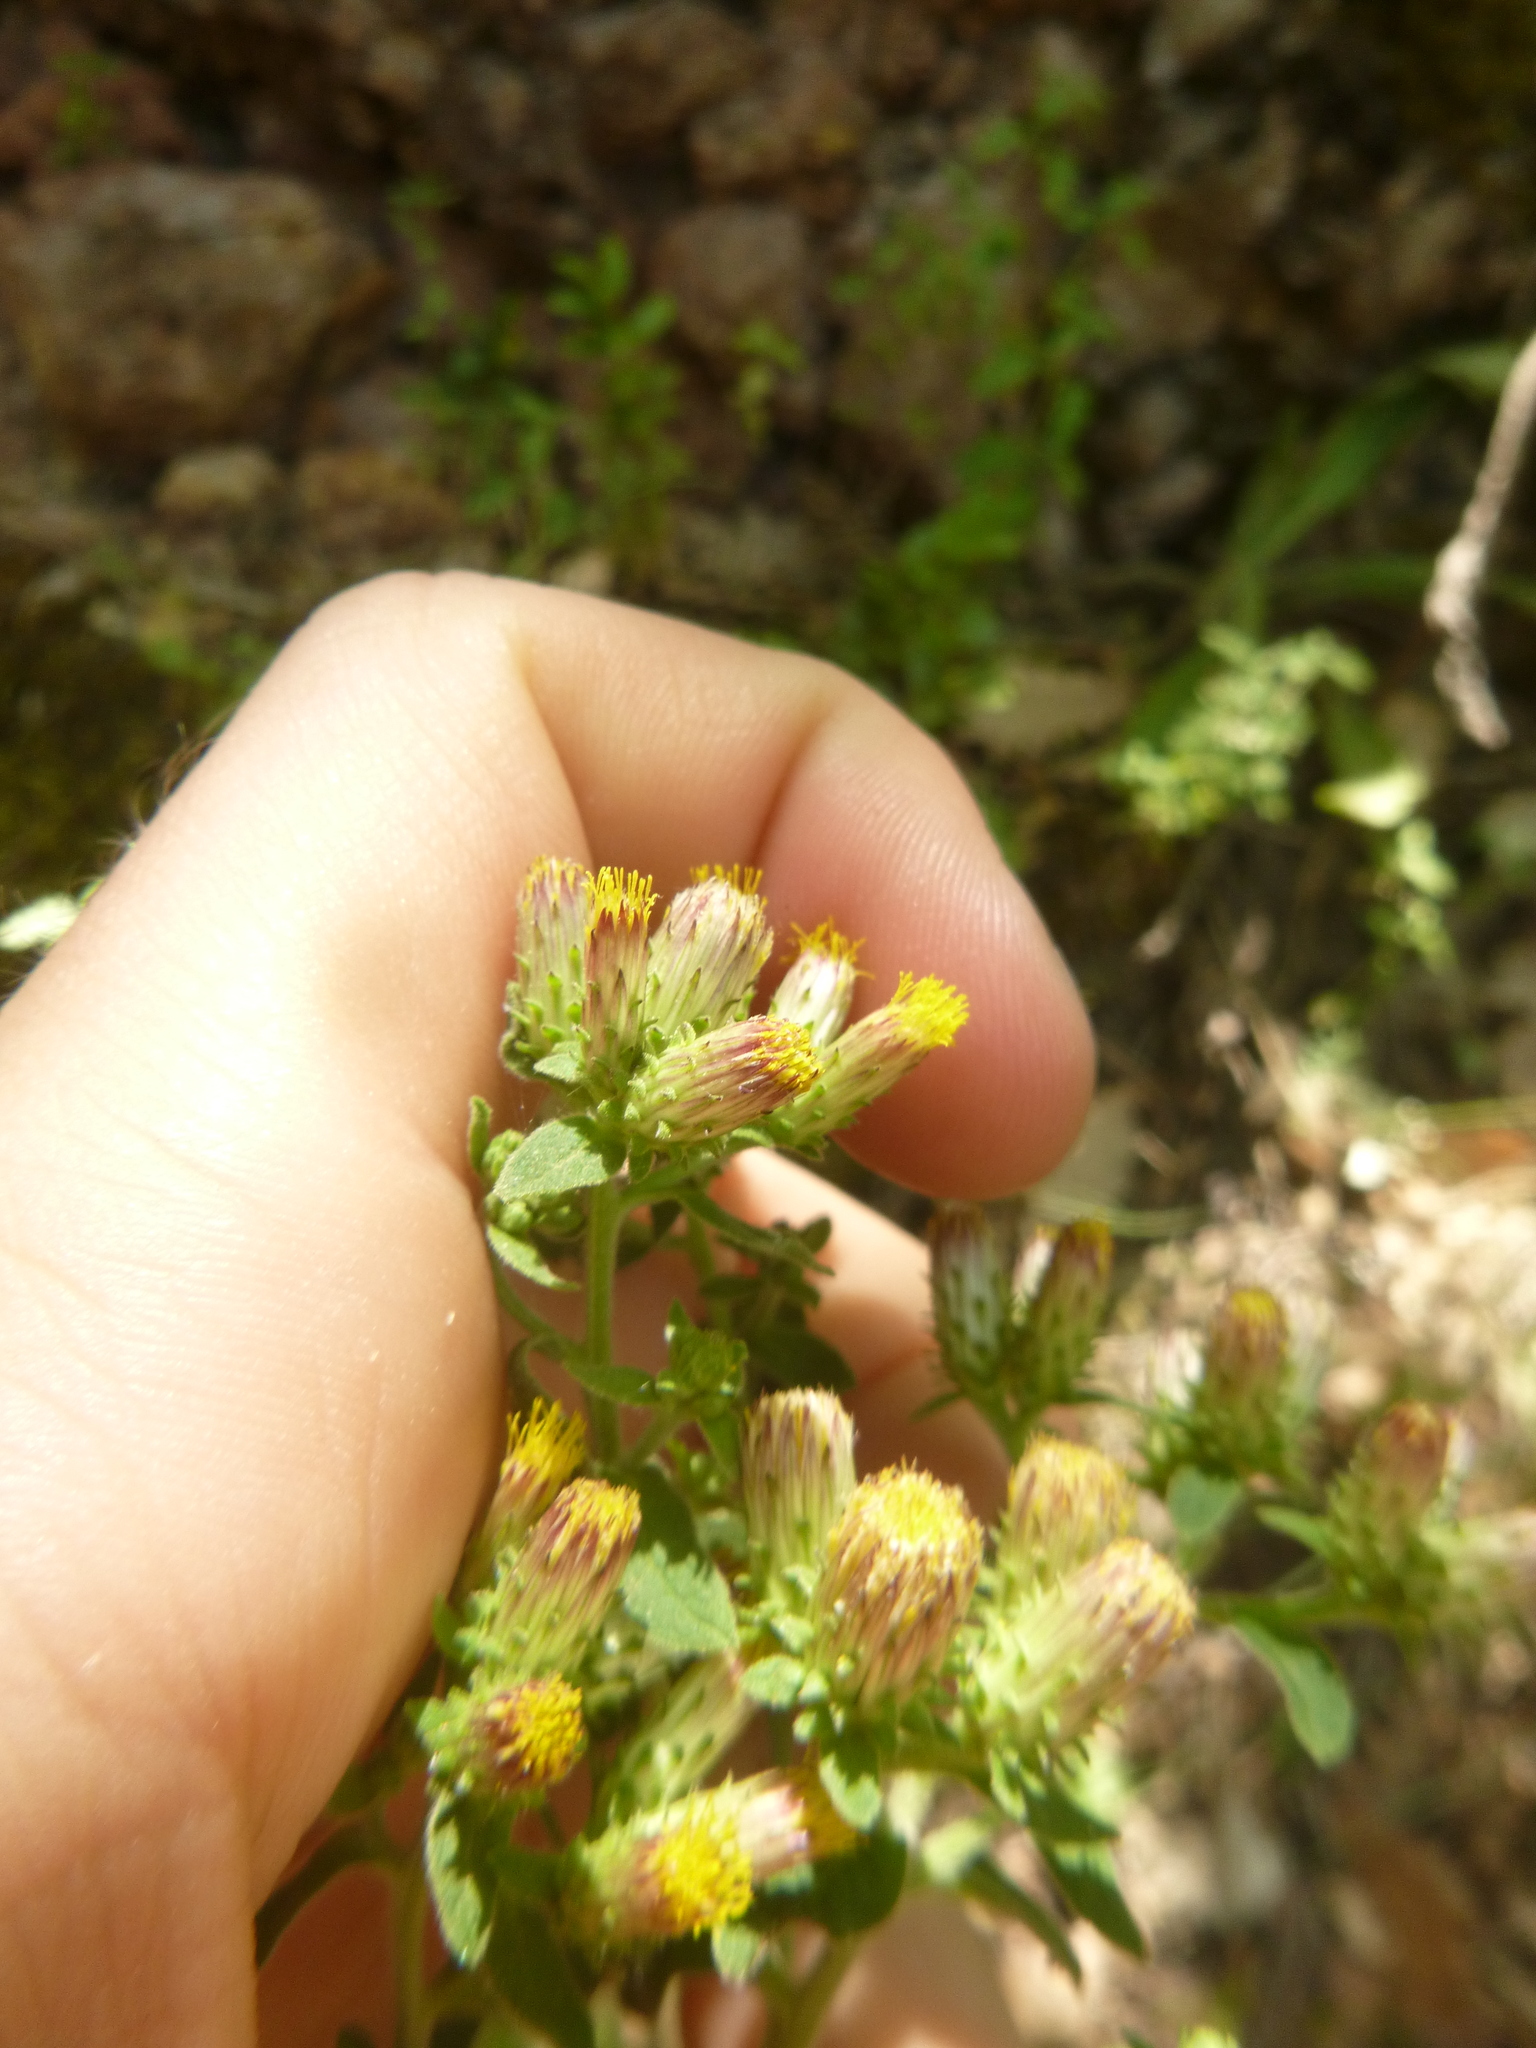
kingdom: Plantae
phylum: Tracheophyta
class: Magnoliopsida
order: Asterales
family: Asteraceae
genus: Pentanema
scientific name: Pentanema squarrosum
